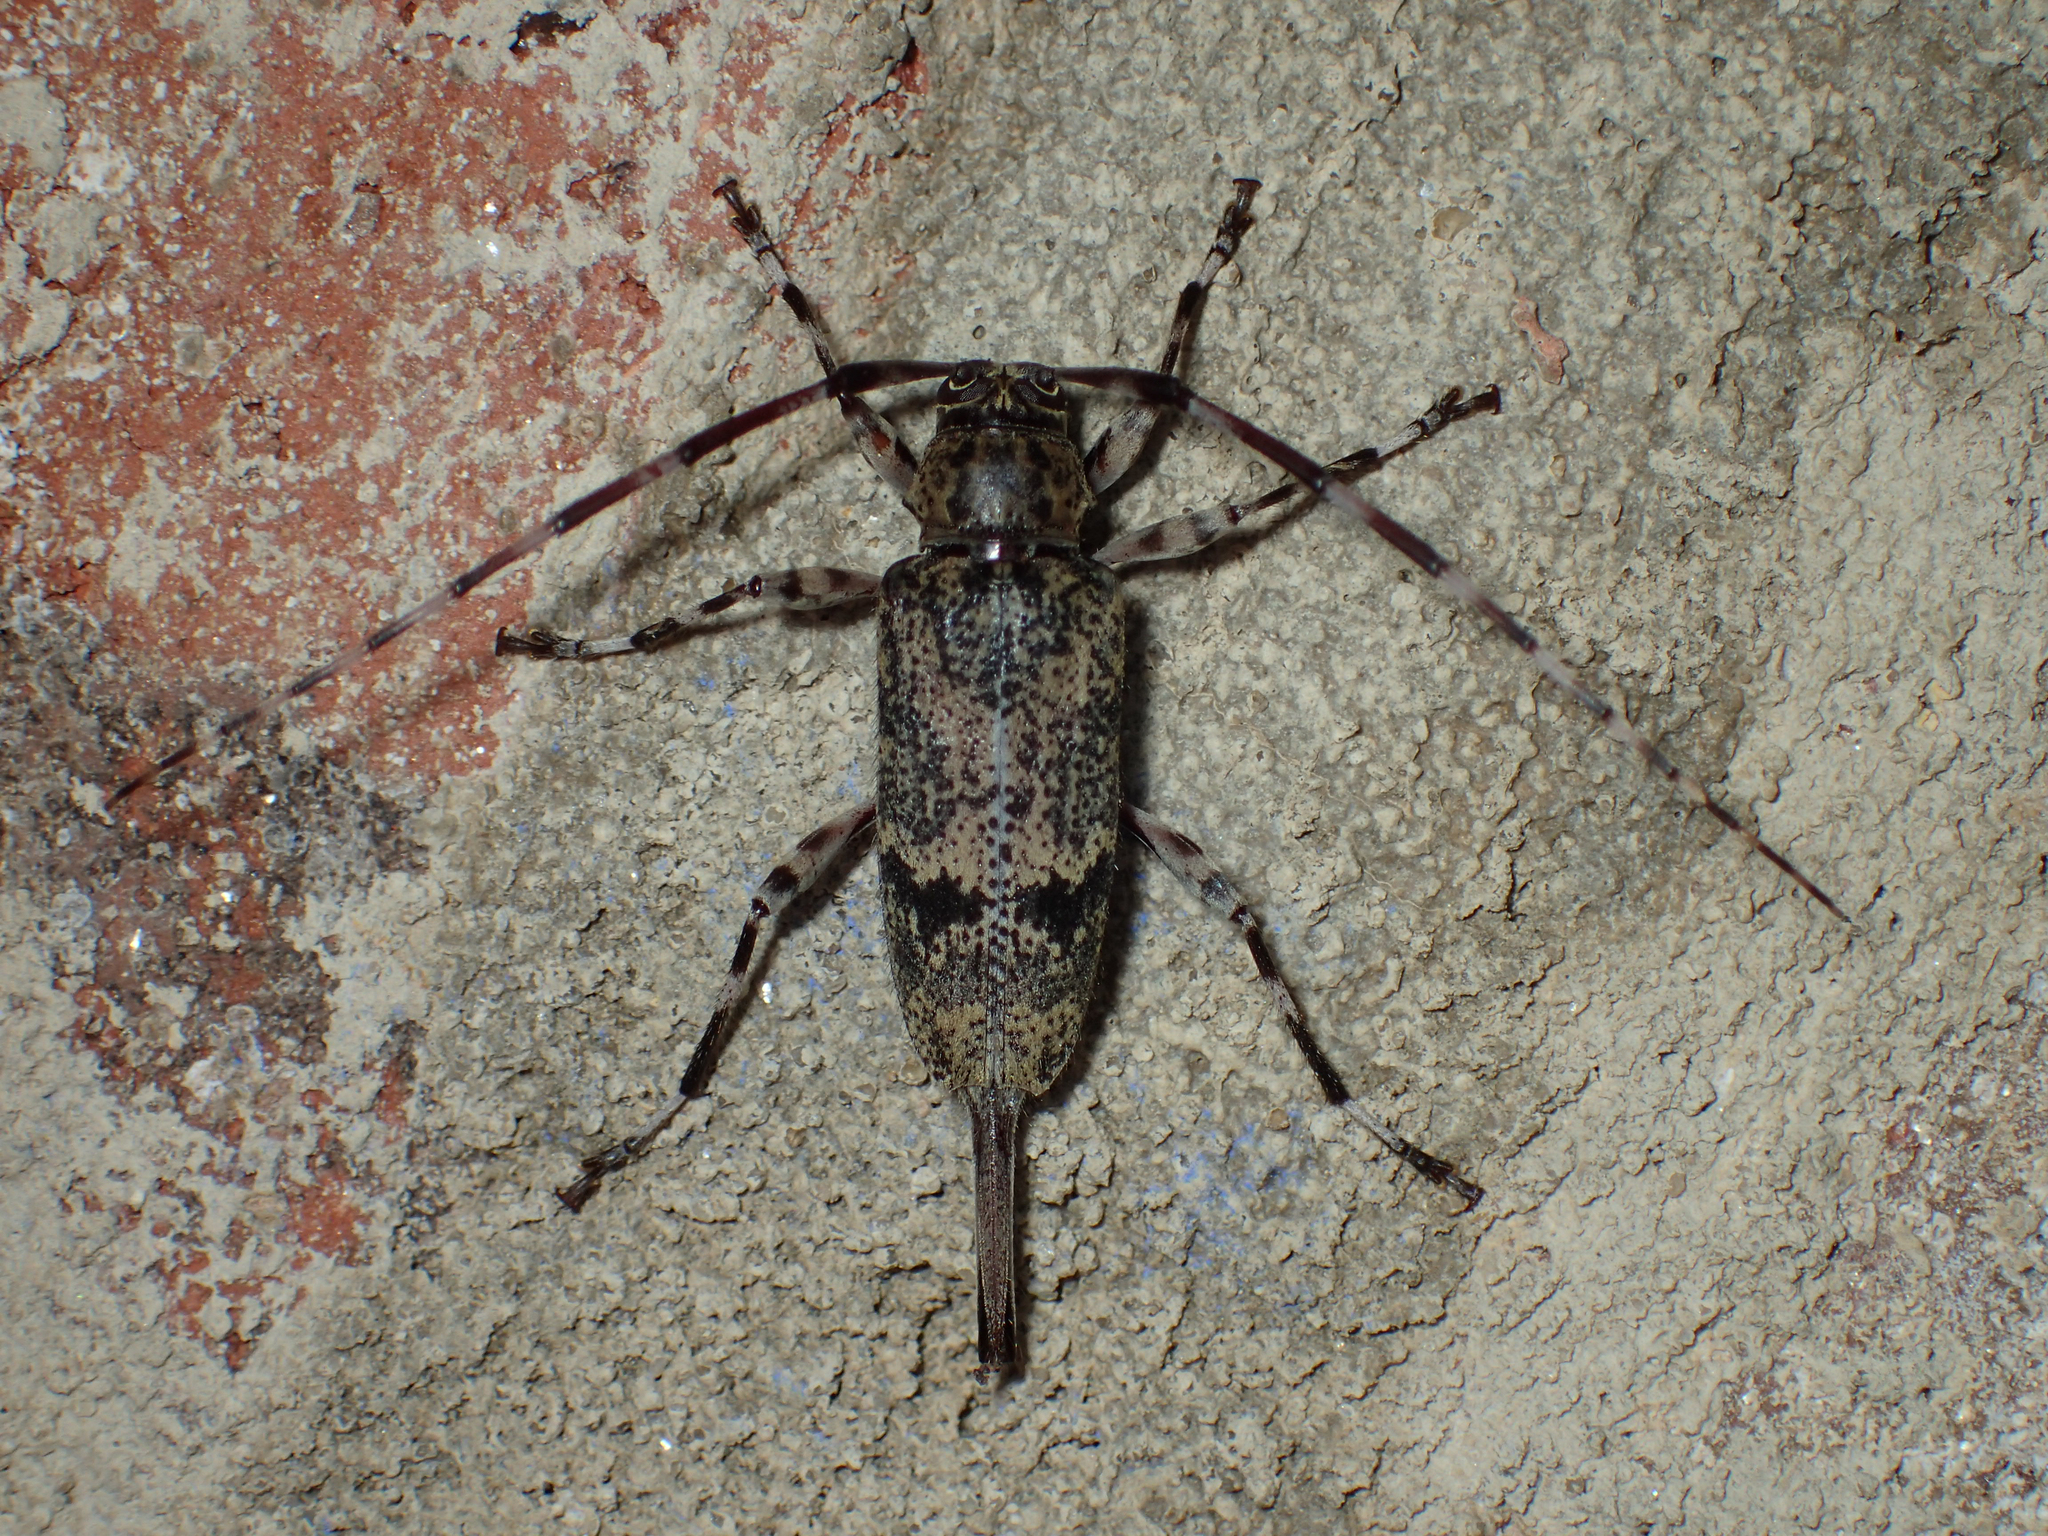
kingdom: Animalia
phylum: Arthropoda
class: Insecta
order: Coleoptera
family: Cerambycidae
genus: Graphisurus
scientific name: Graphisurus fasciatus
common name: Banded graphisurus
